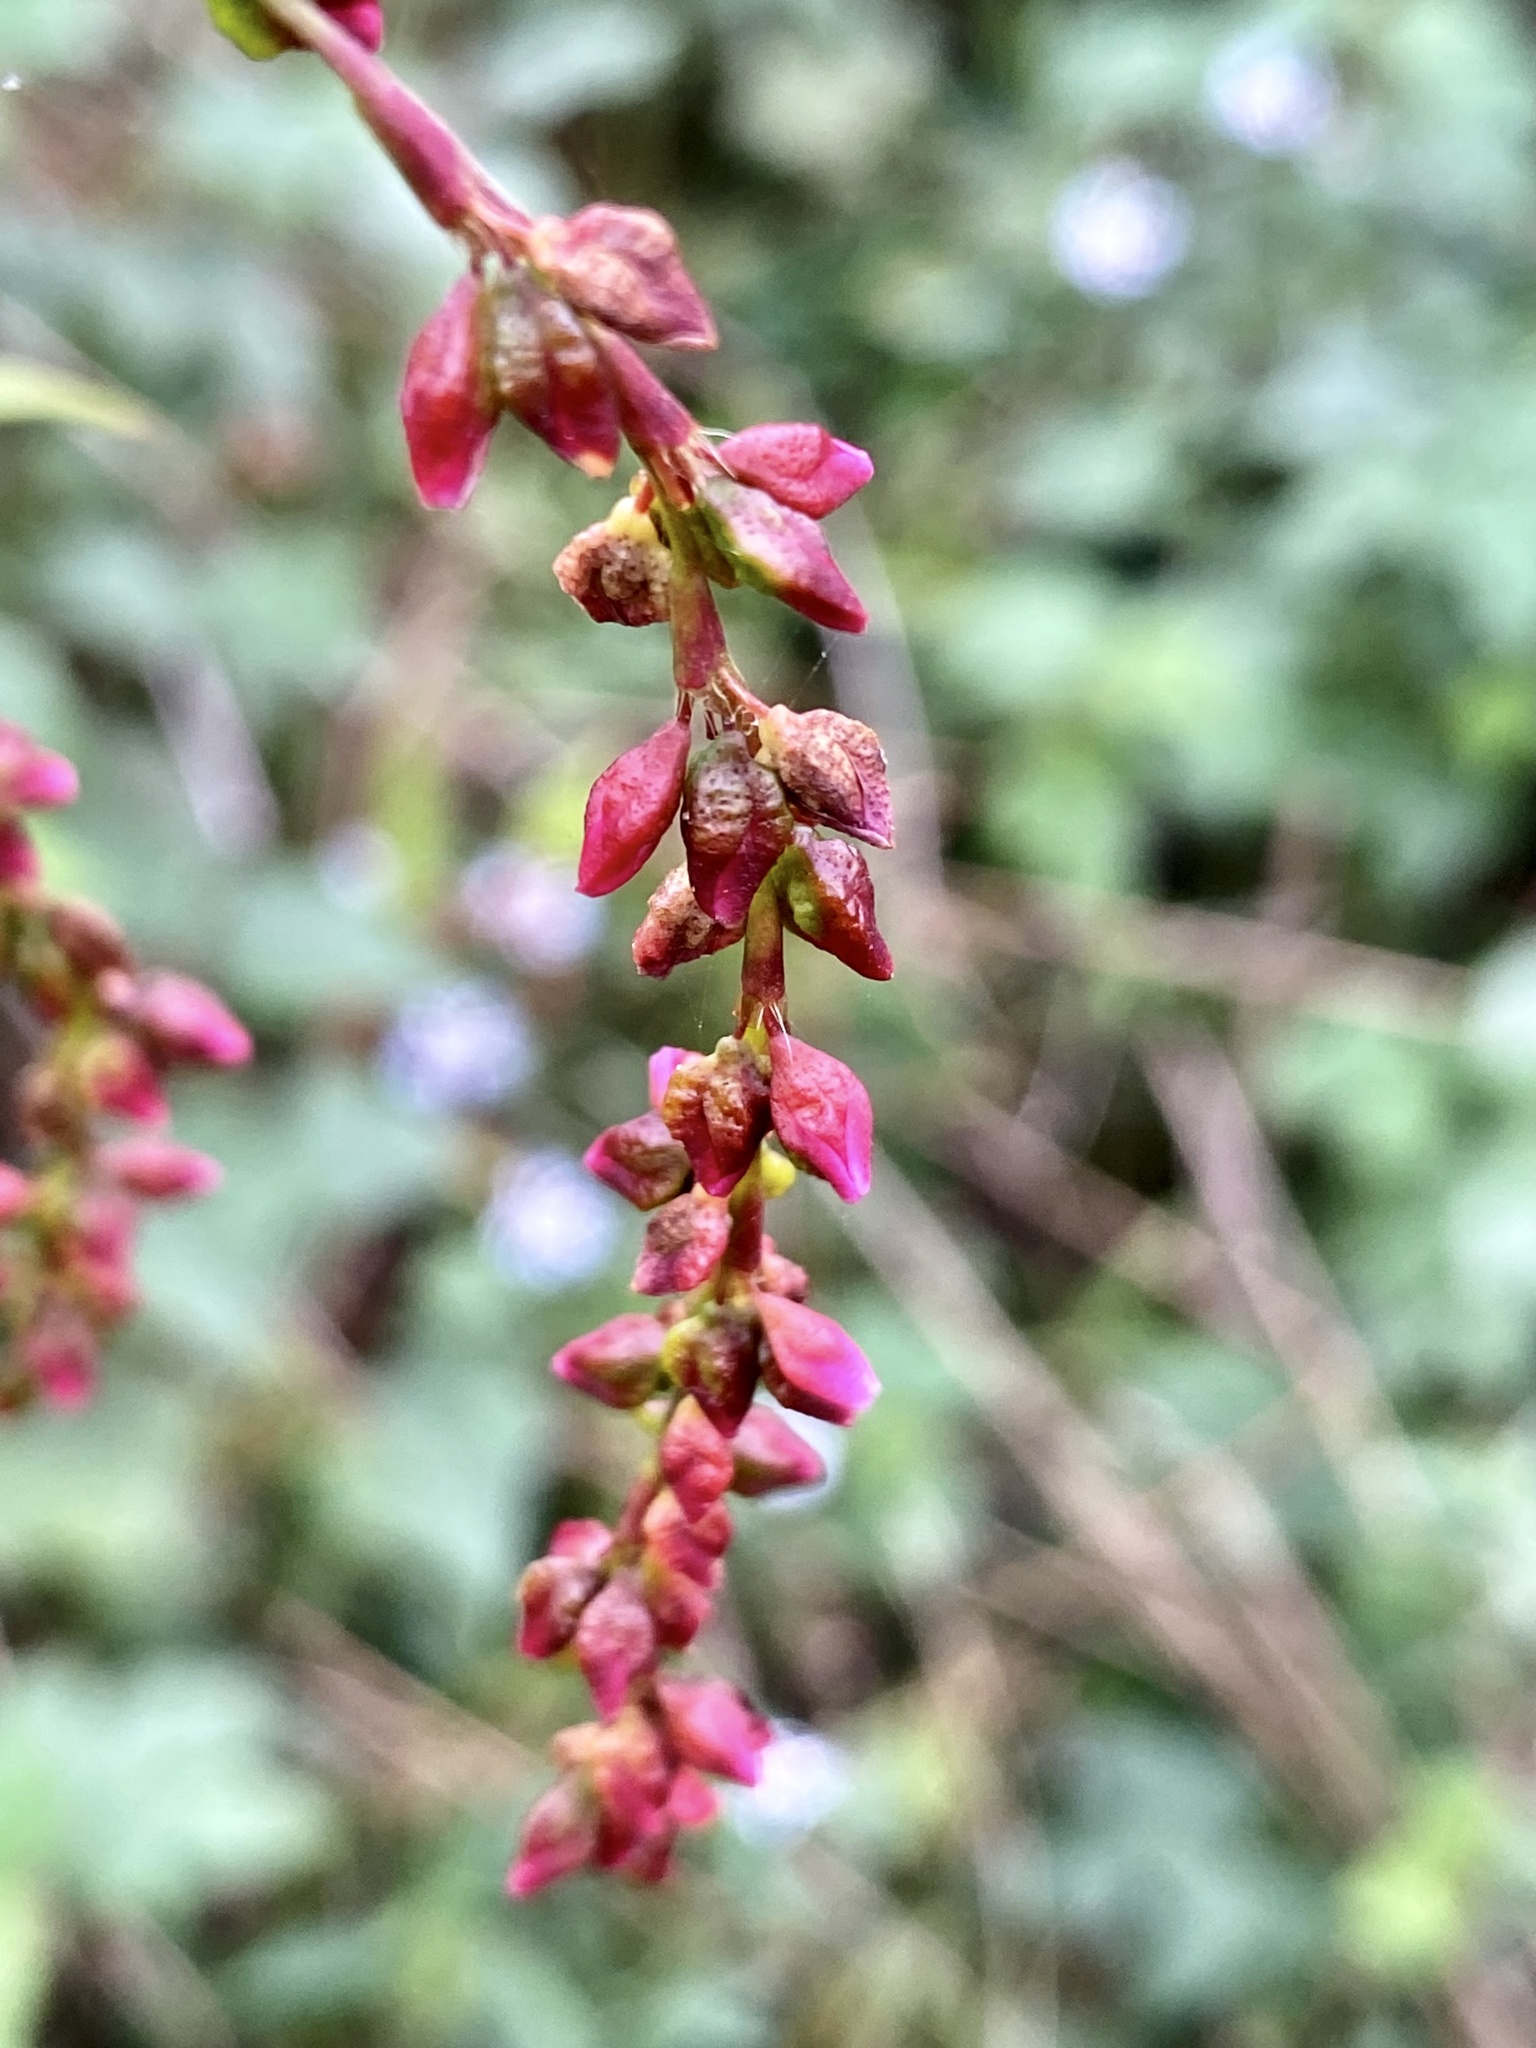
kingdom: Plantae
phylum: Tracheophyta
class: Magnoliopsida
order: Caryophyllales
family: Polygonaceae
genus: Persicaria
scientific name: Persicaria hydropiper
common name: Water-pepper
